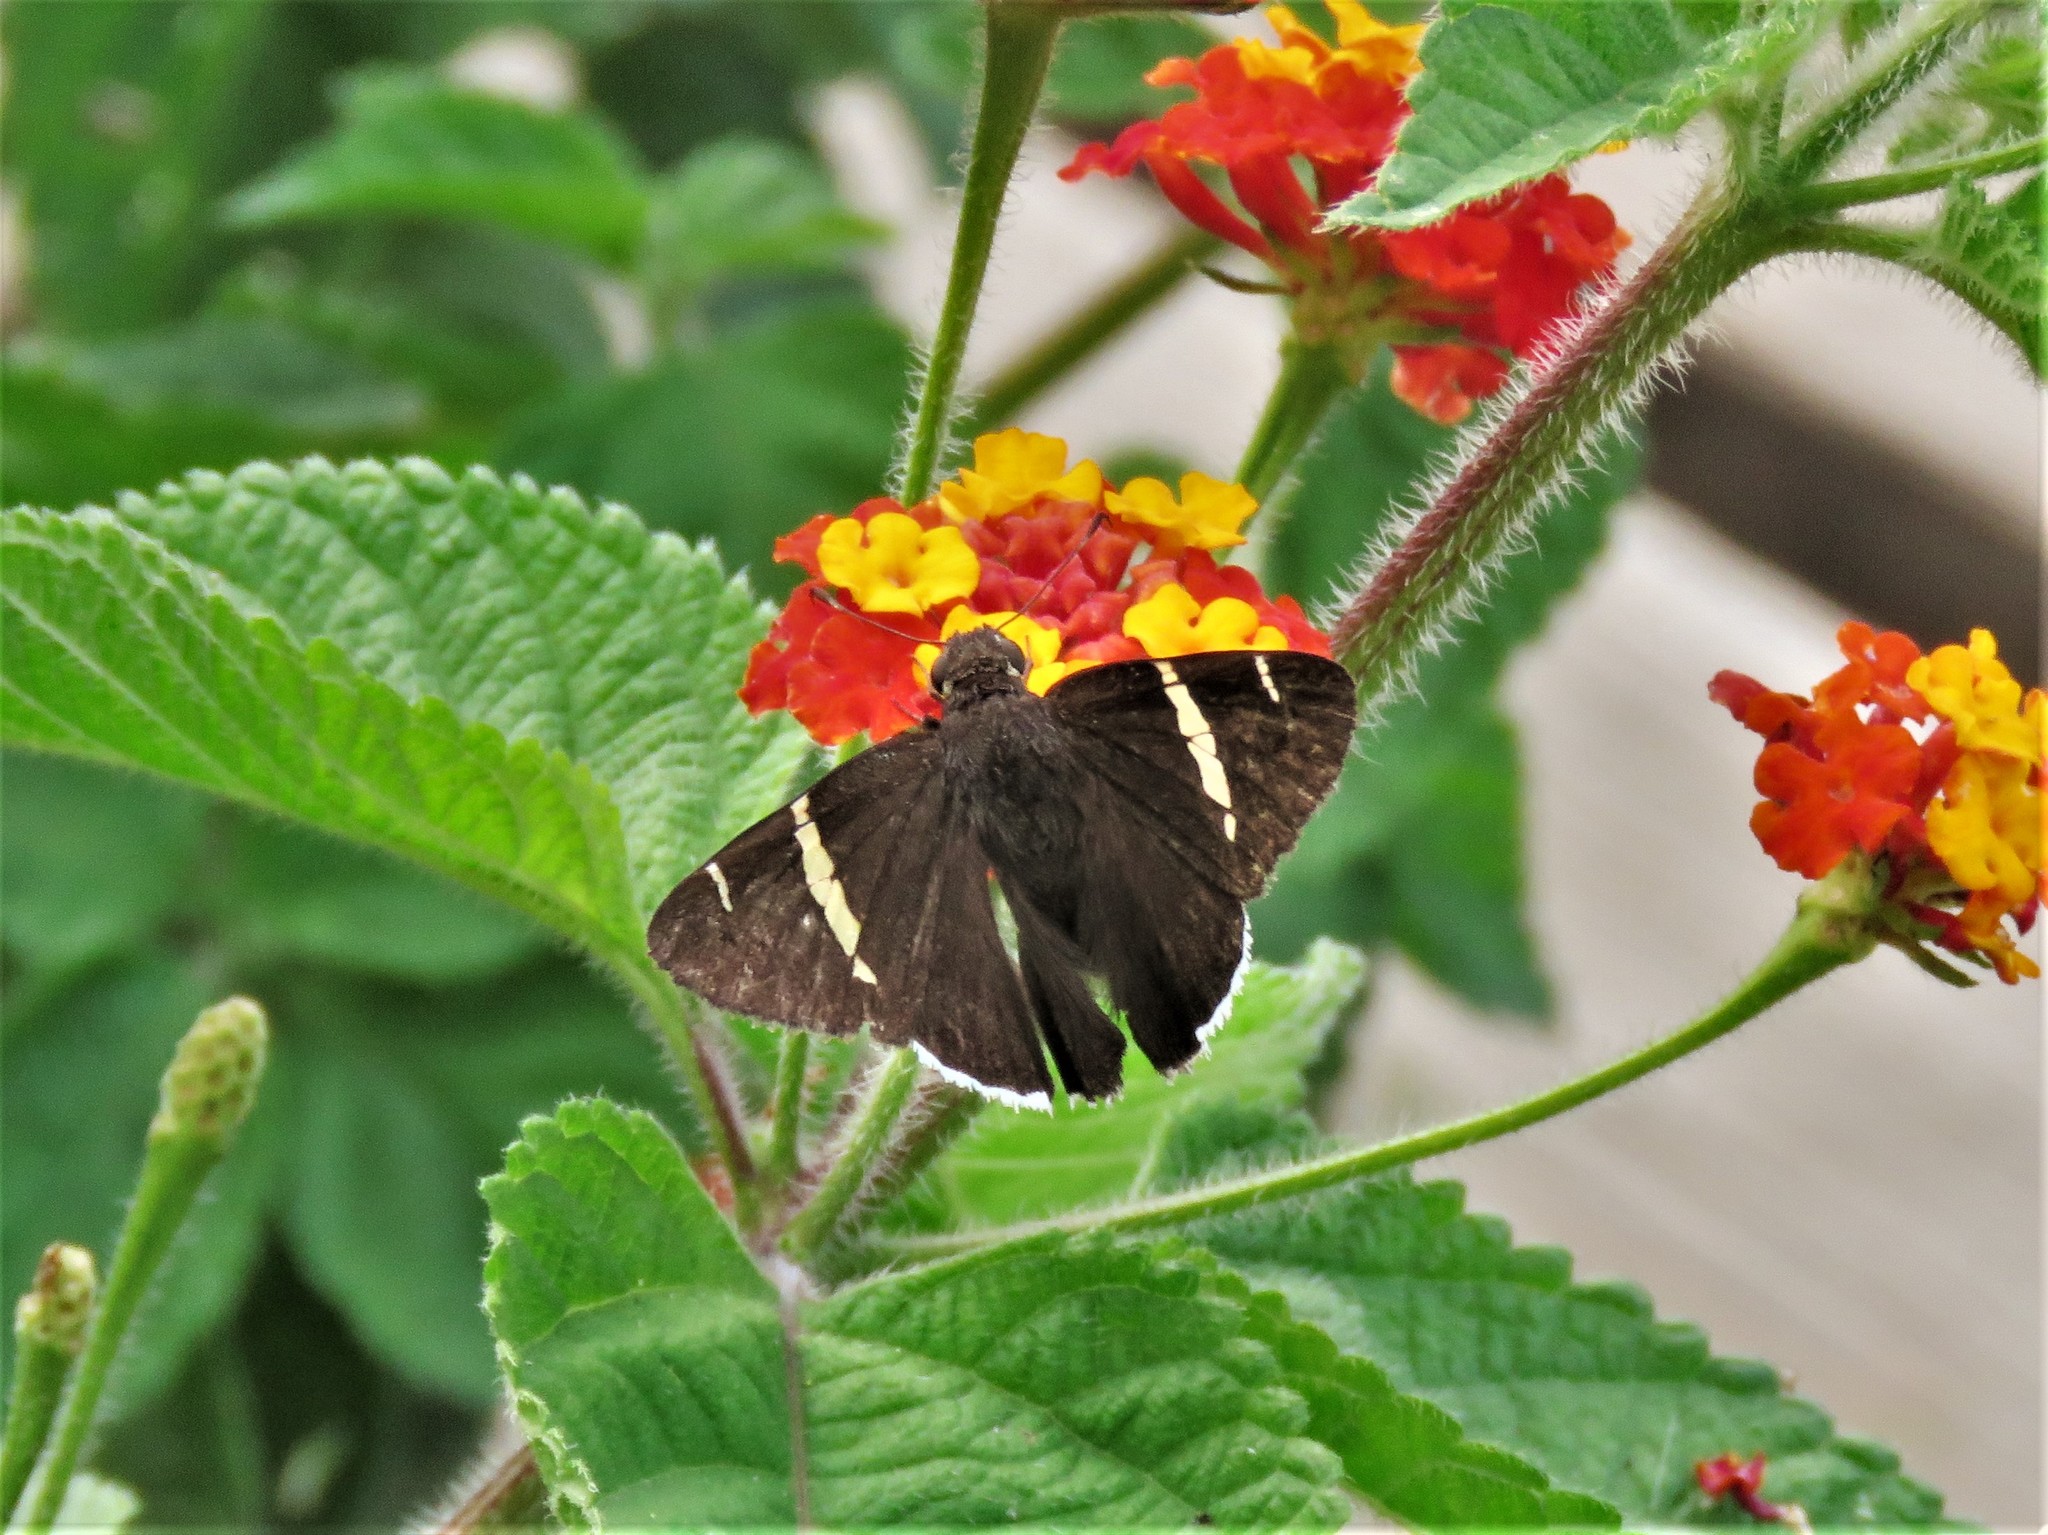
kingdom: Animalia
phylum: Arthropoda
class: Insecta
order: Lepidoptera
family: Hesperiidae
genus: Thorybes
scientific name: Thorybes cincta
